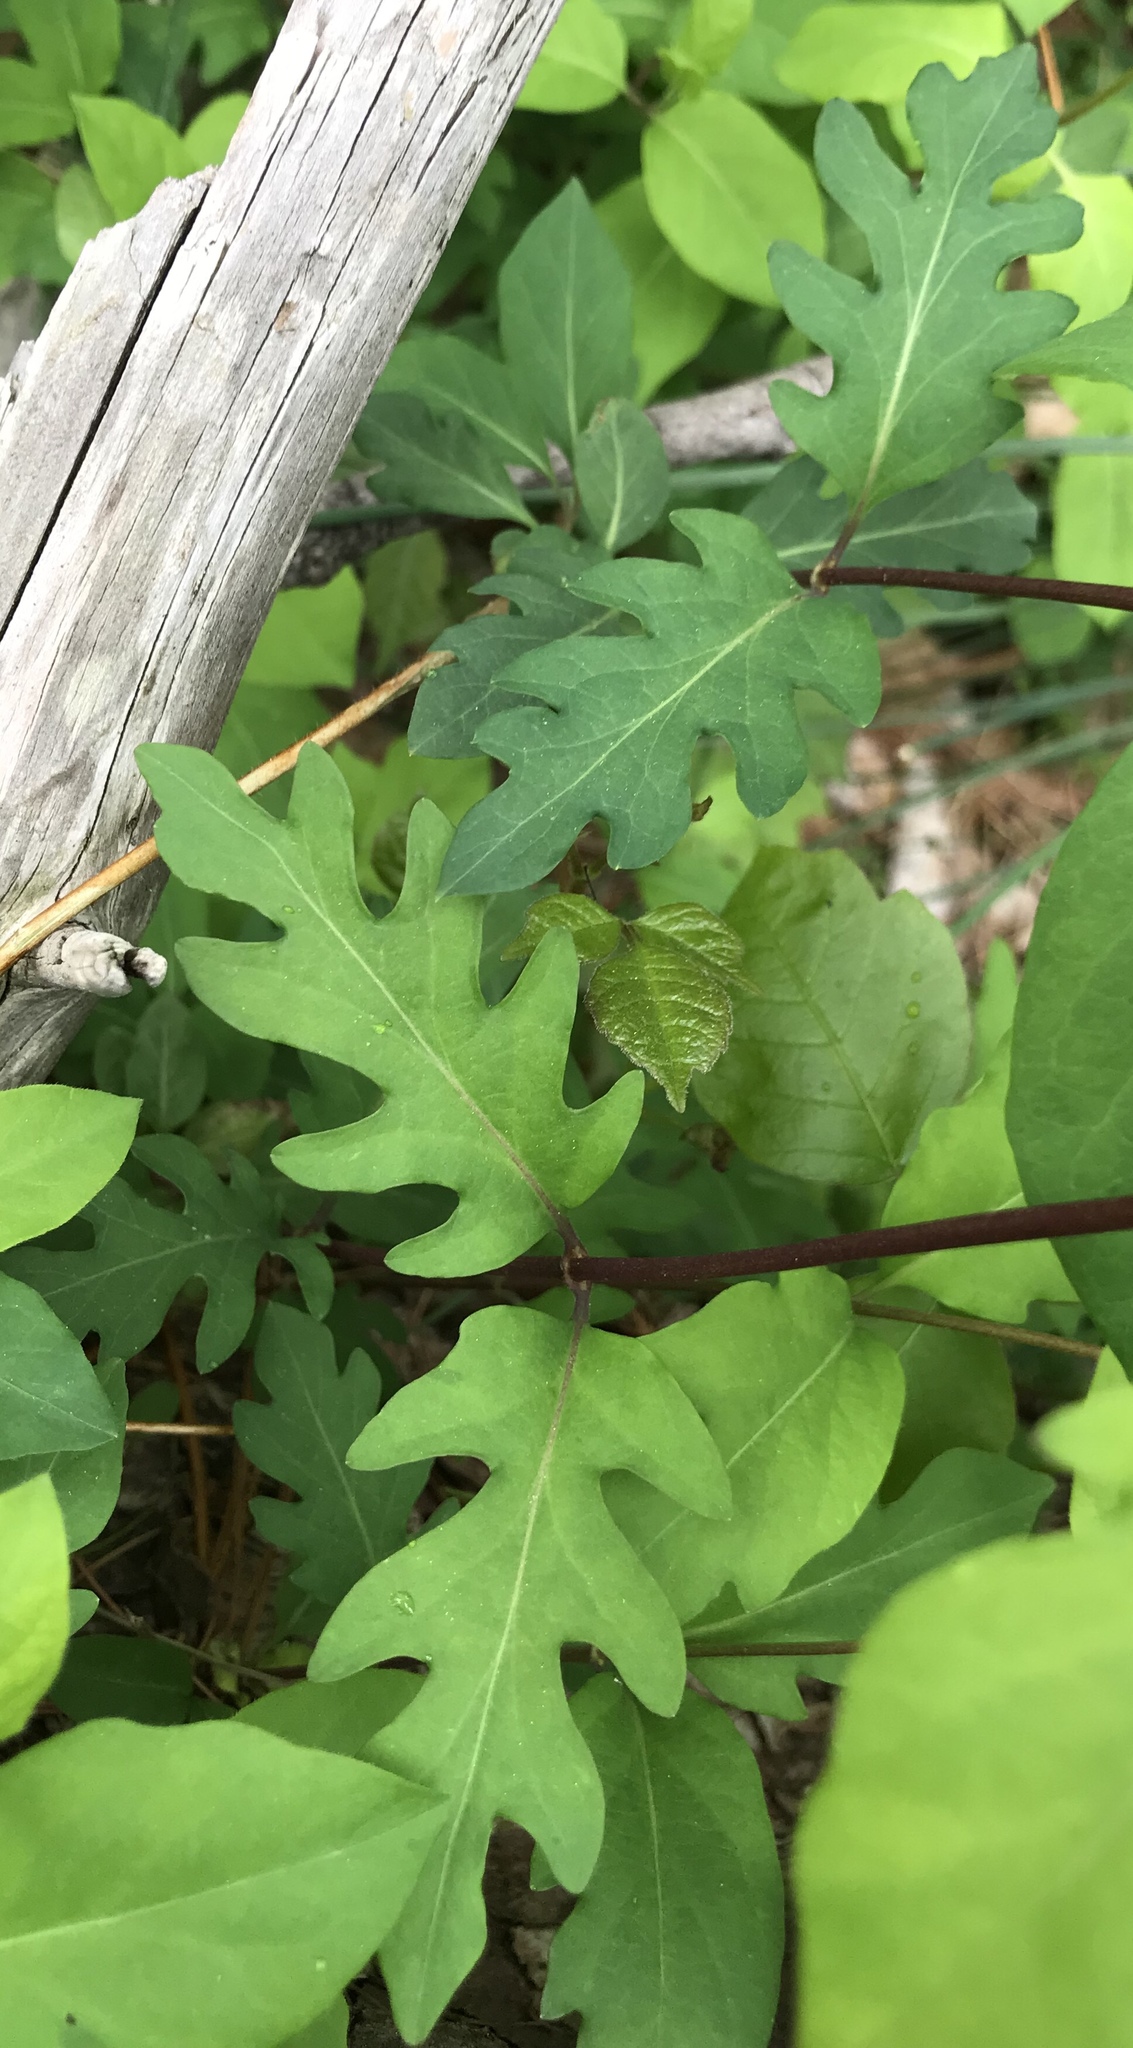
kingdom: Plantae
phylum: Tracheophyta
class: Magnoliopsida
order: Dipsacales
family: Caprifoliaceae
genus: Lonicera
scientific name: Lonicera japonica
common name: Japanese honeysuckle
